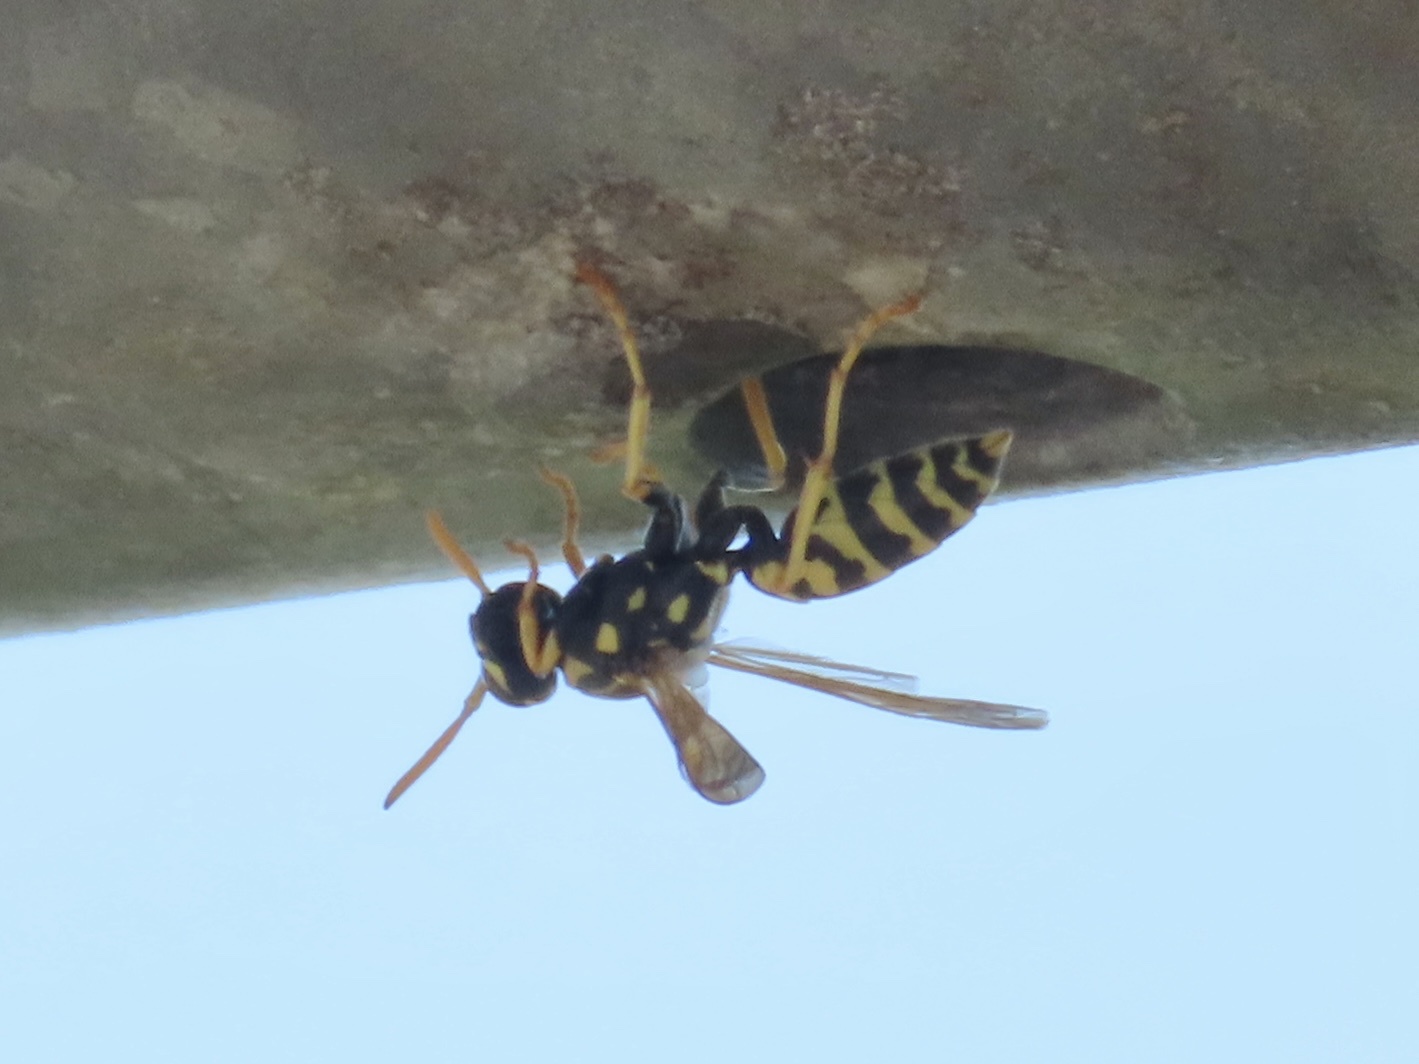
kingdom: Animalia
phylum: Arthropoda
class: Insecta
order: Hymenoptera
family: Eumenidae
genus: Polistes
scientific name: Polistes dominula
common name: Paper wasp
